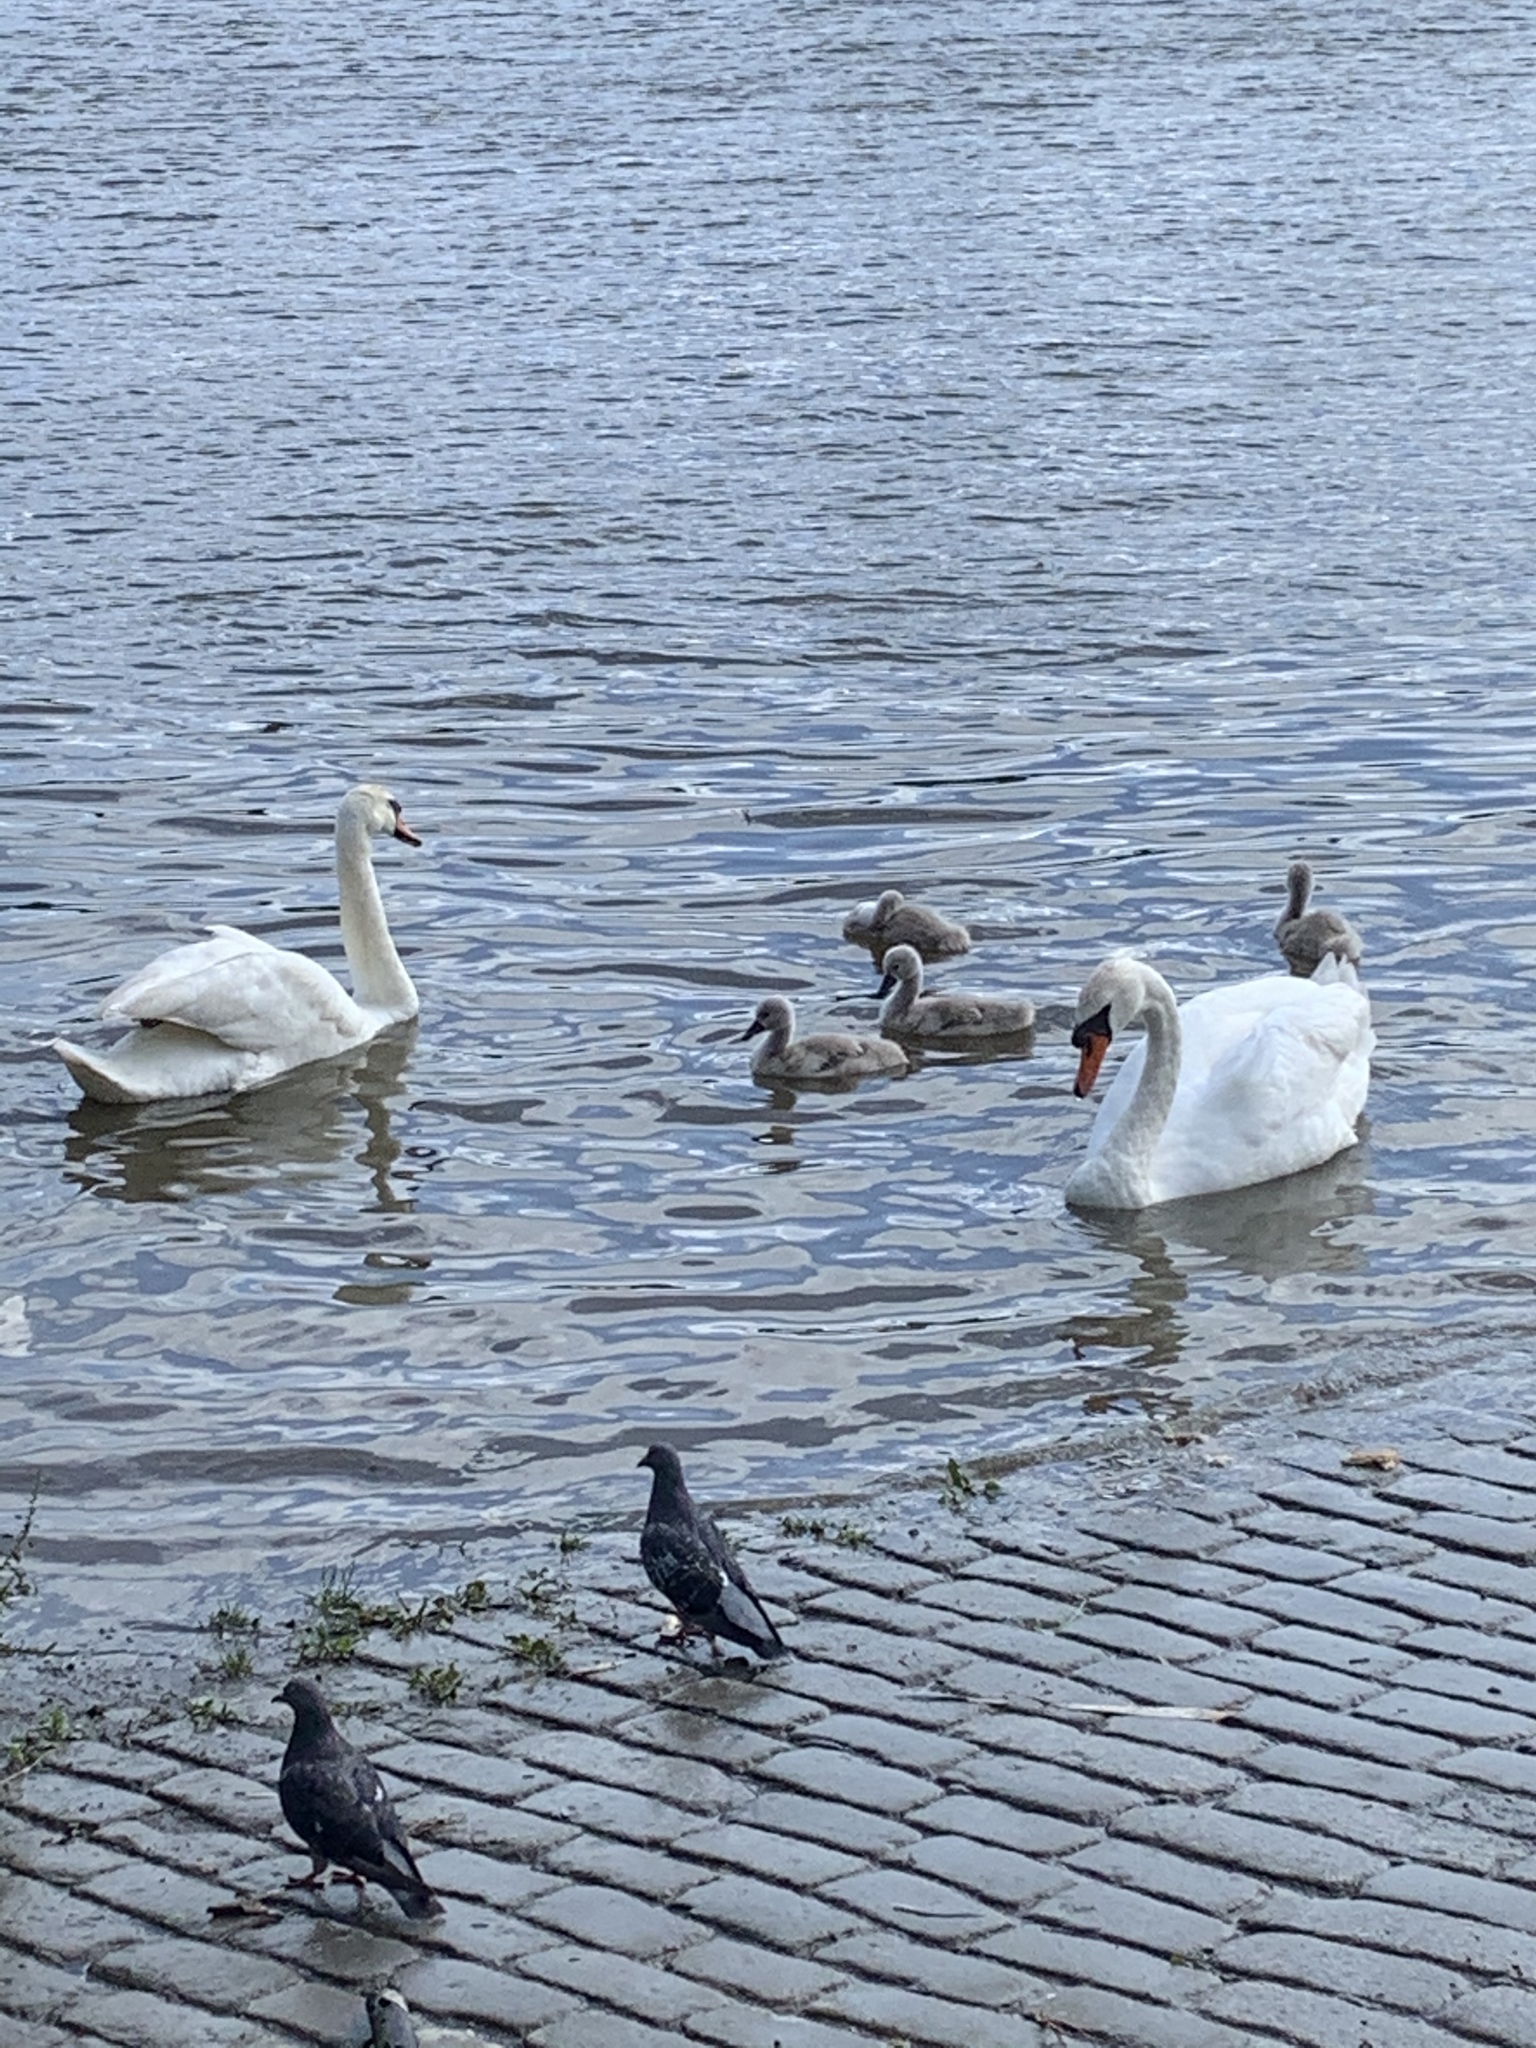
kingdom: Animalia
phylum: Chordata
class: Aves
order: Anseriformes
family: Anatidae
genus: Cygnus
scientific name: Cygnus olor
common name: Mute swan
